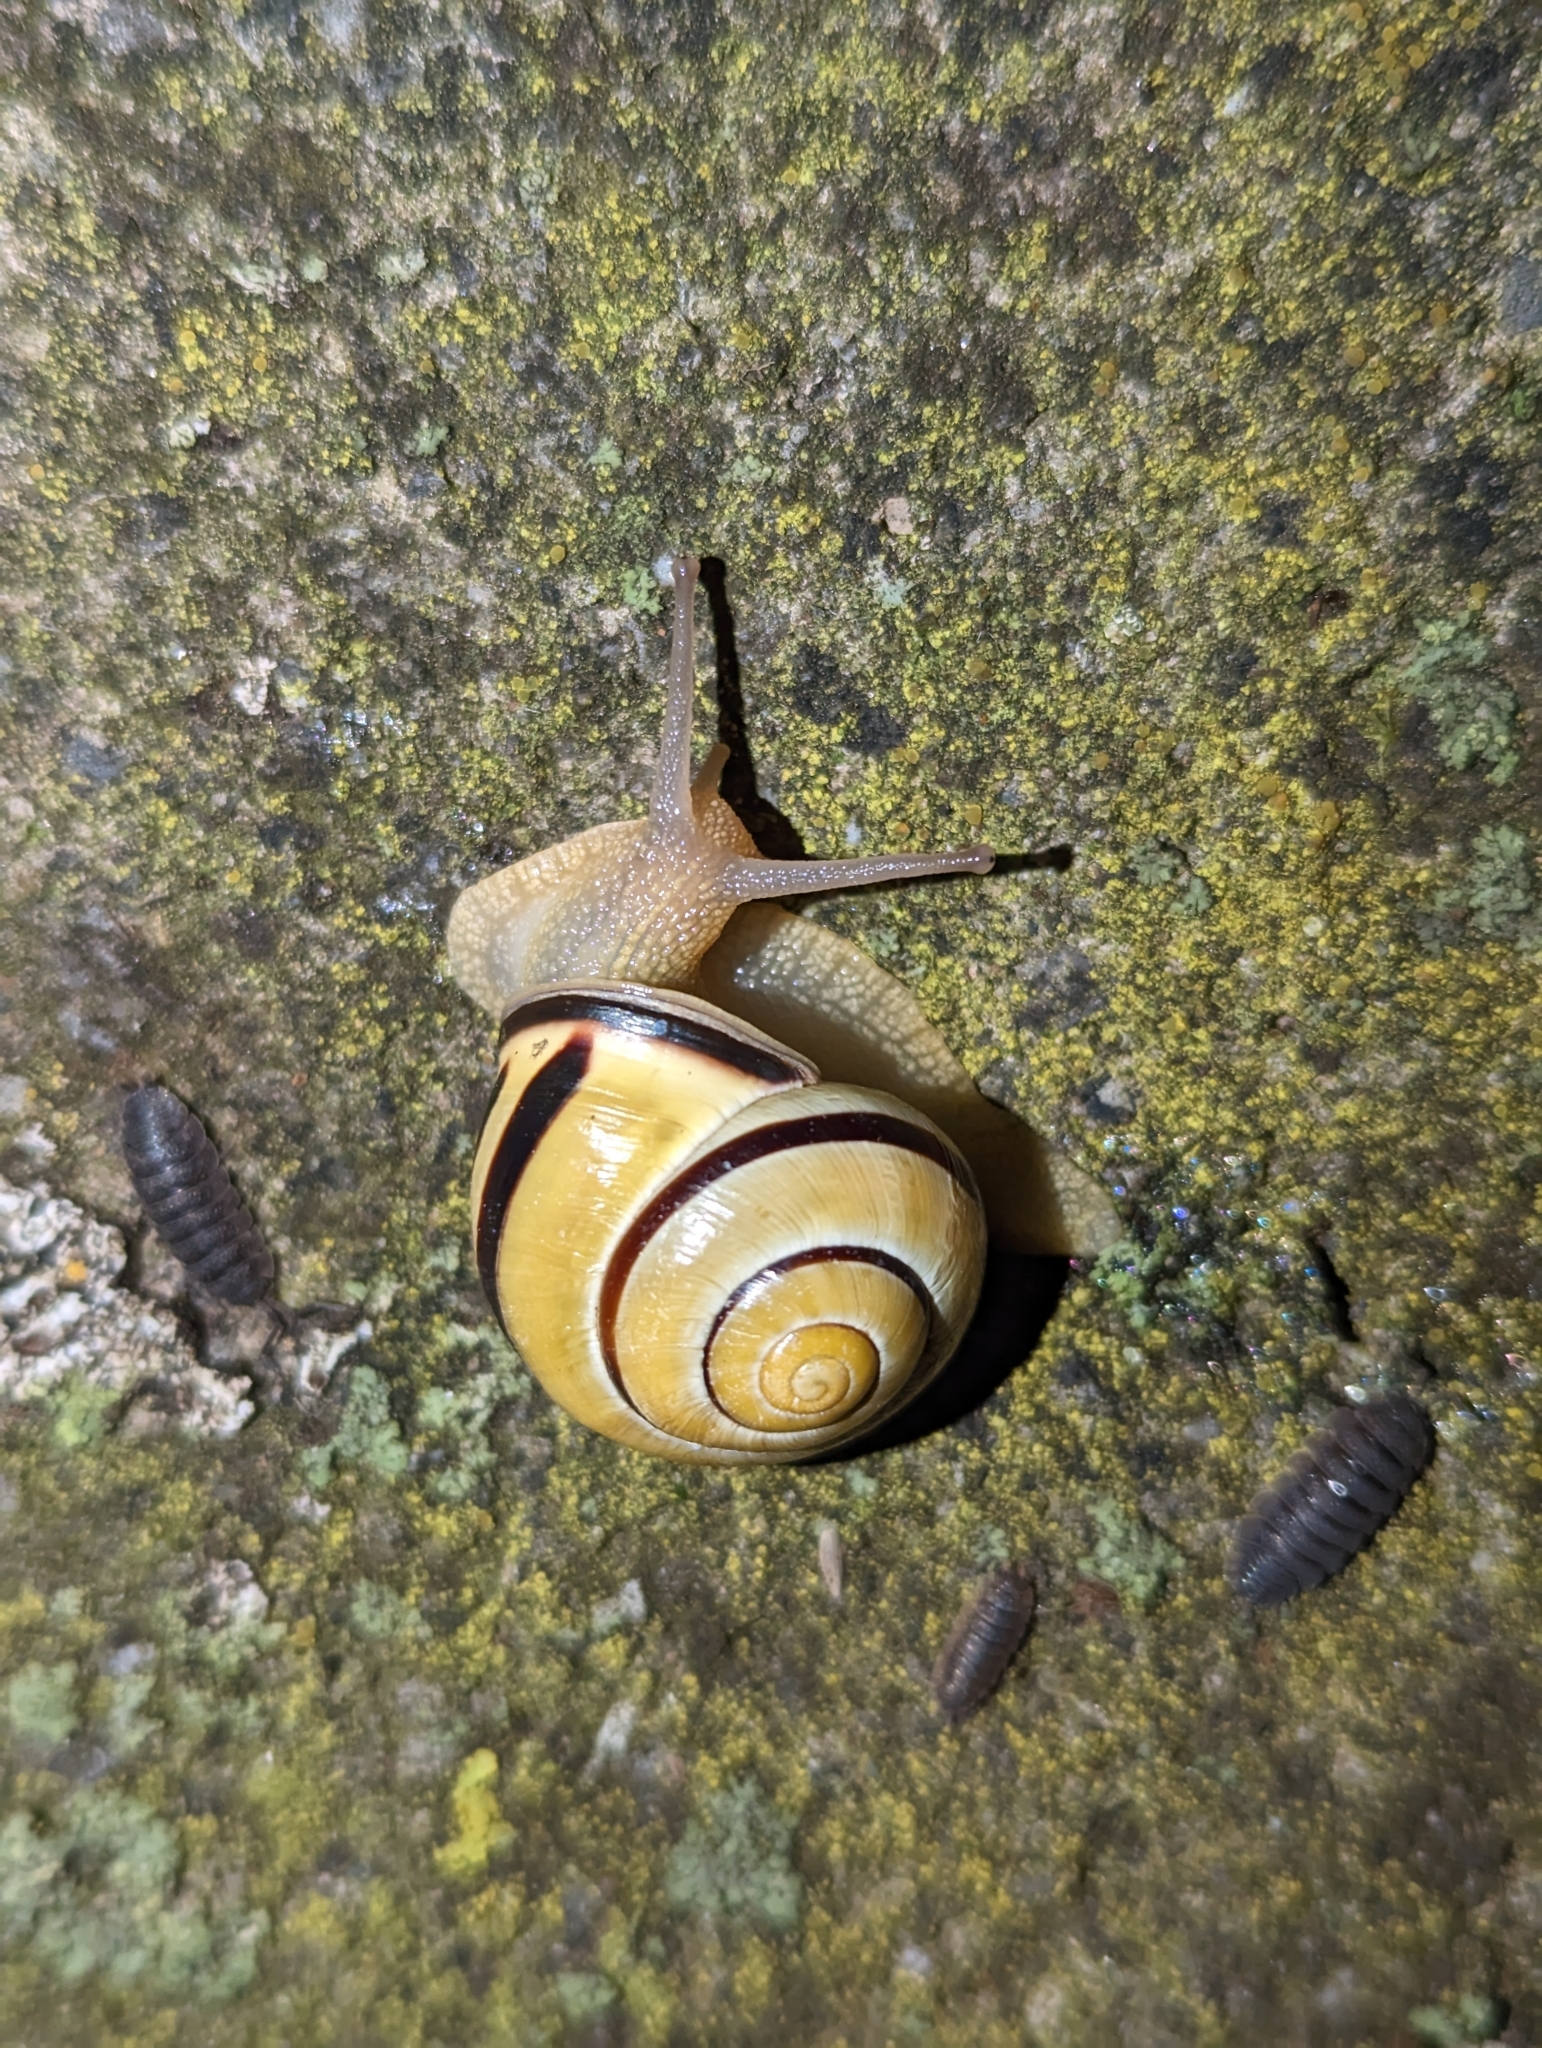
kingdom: Animalia
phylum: Mollusca
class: Gastropoda
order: Stylommatophora
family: Helicidae
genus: Cepaea
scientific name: Cepaea nemoralis
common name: Grovesnail
